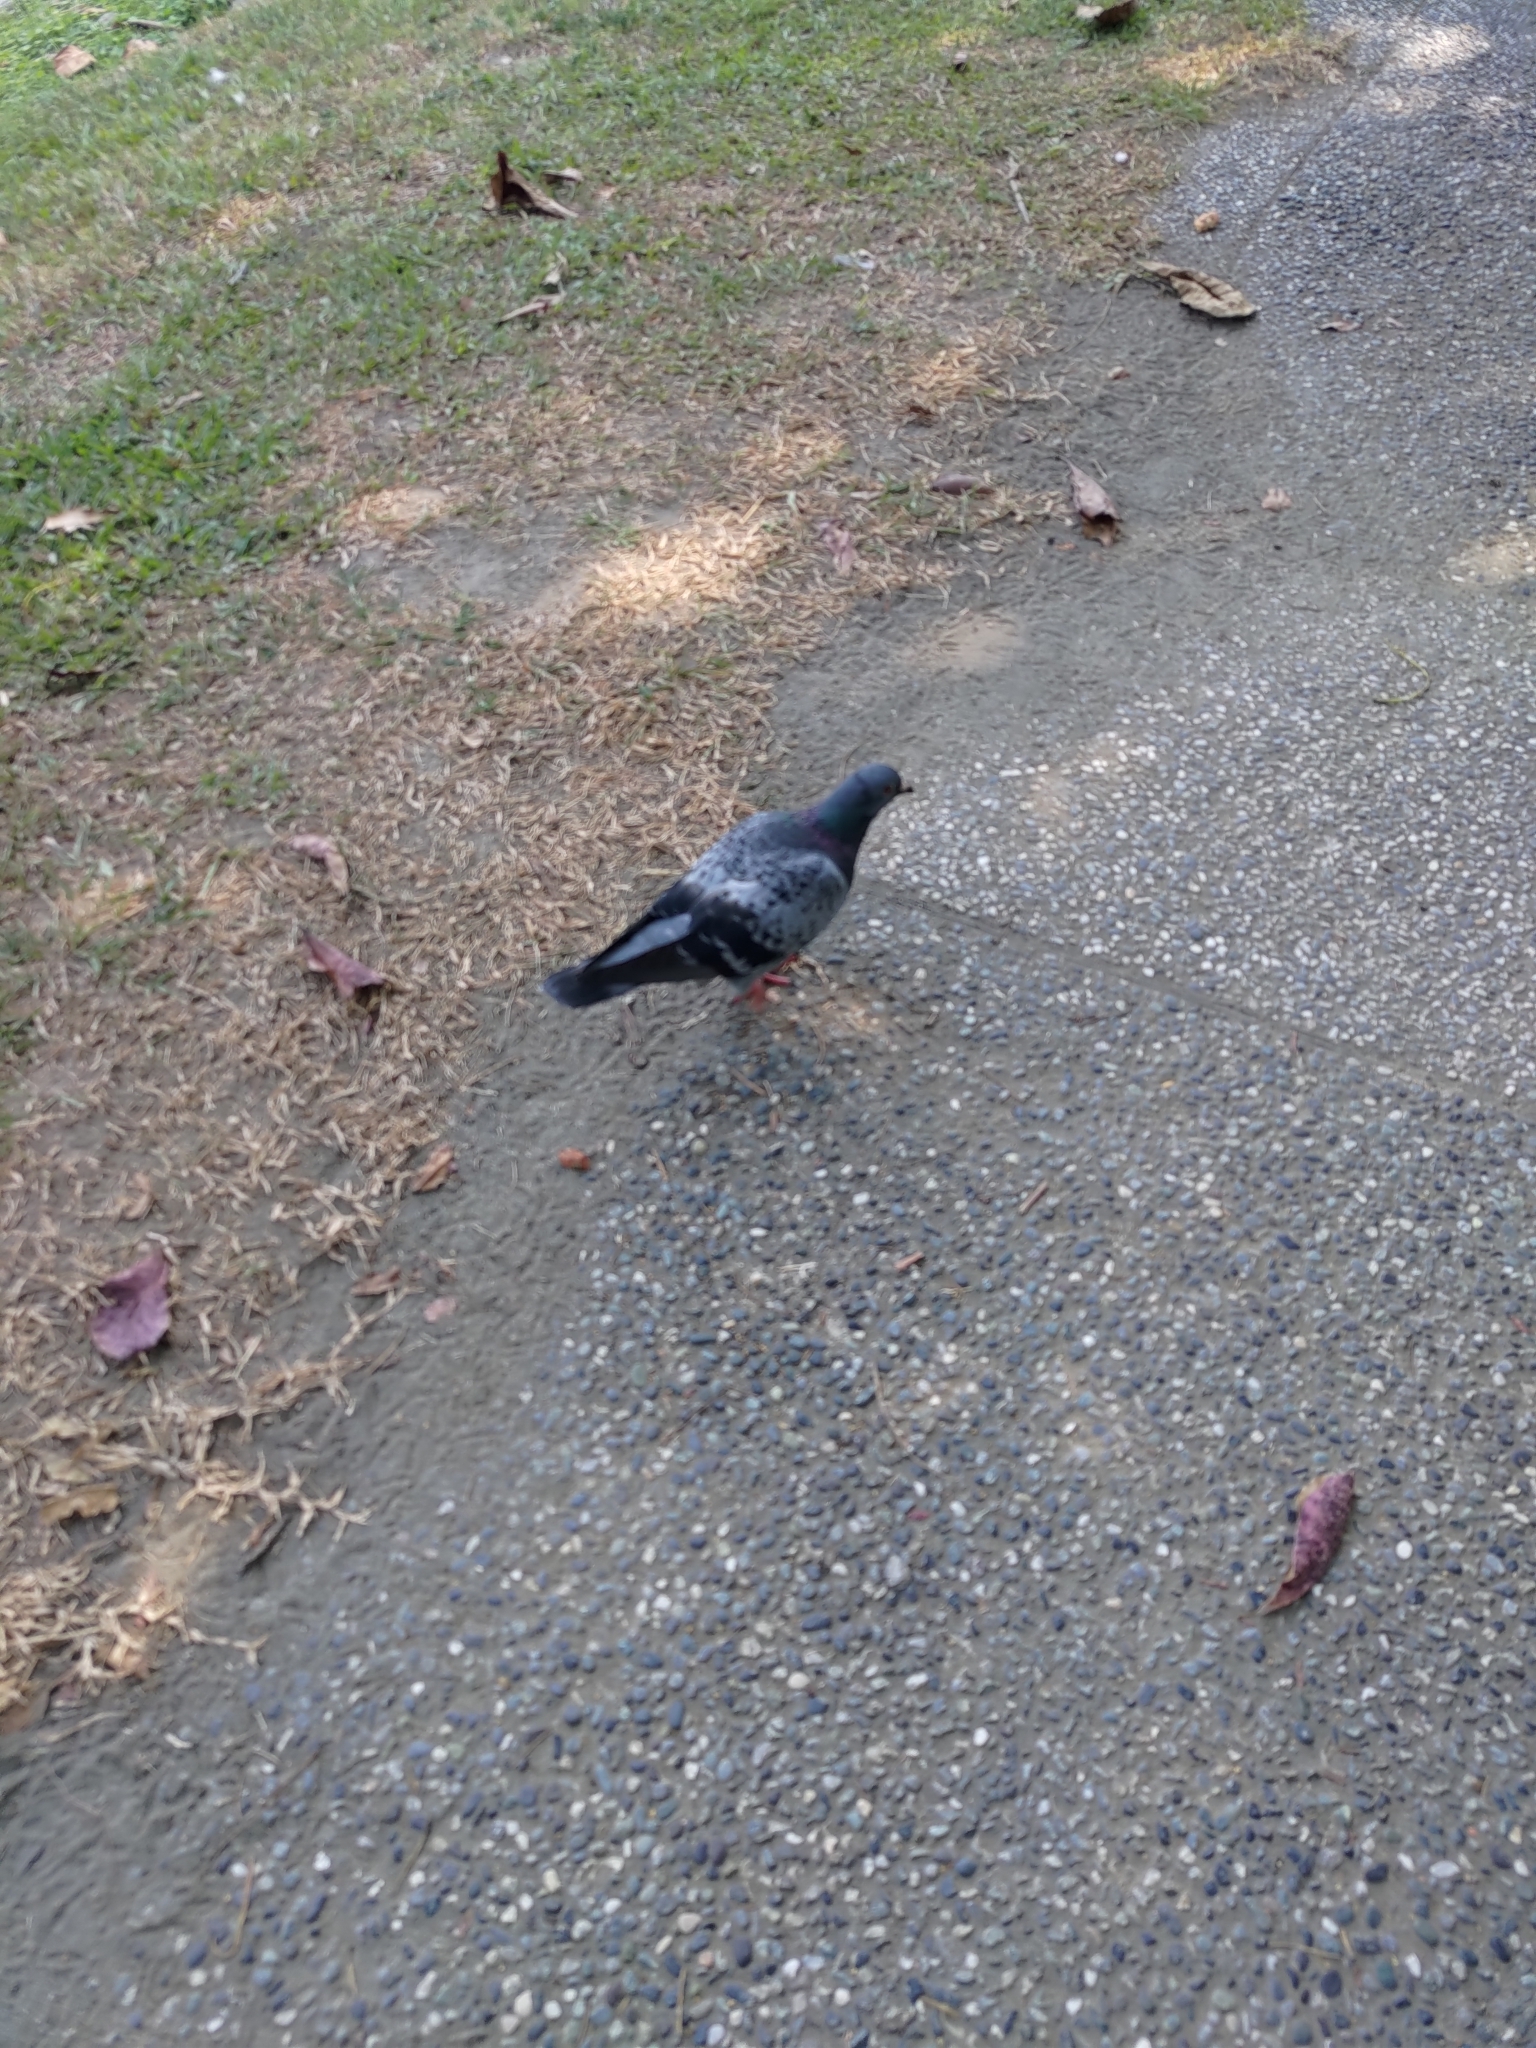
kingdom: Animalia
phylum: Chordata
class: Aves
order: Columbiformes
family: Columbidae
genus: Columba
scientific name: Columba livia
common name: Rock pigeon
